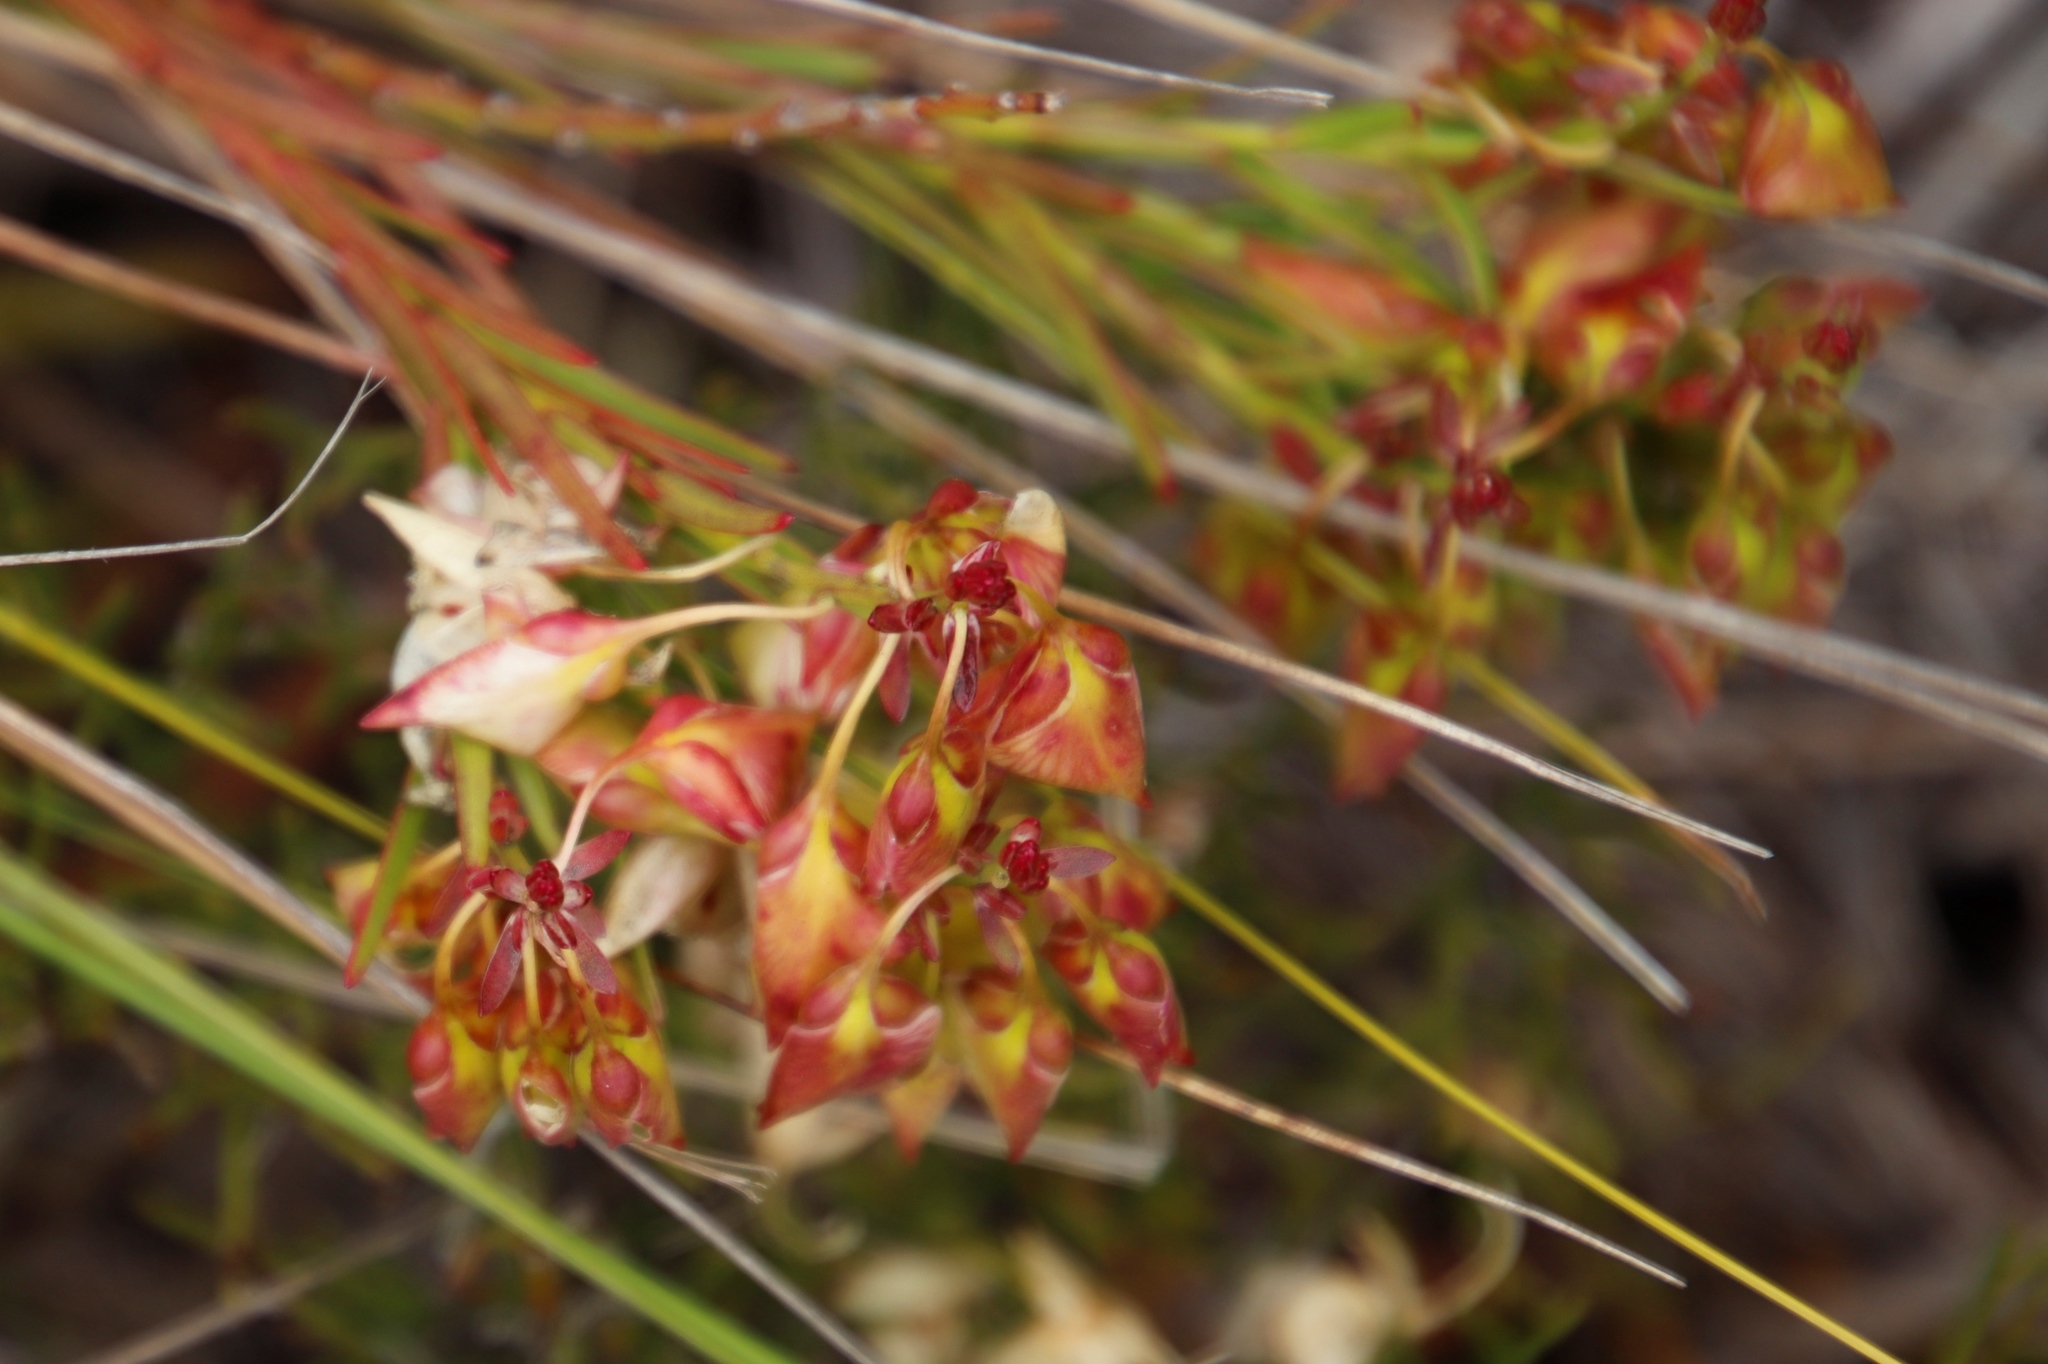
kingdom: Plantae
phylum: Tracheophyta
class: Magnoliopsida
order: Fabales
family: Polygalaceae
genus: Polygala
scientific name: Polygala bracteolata
